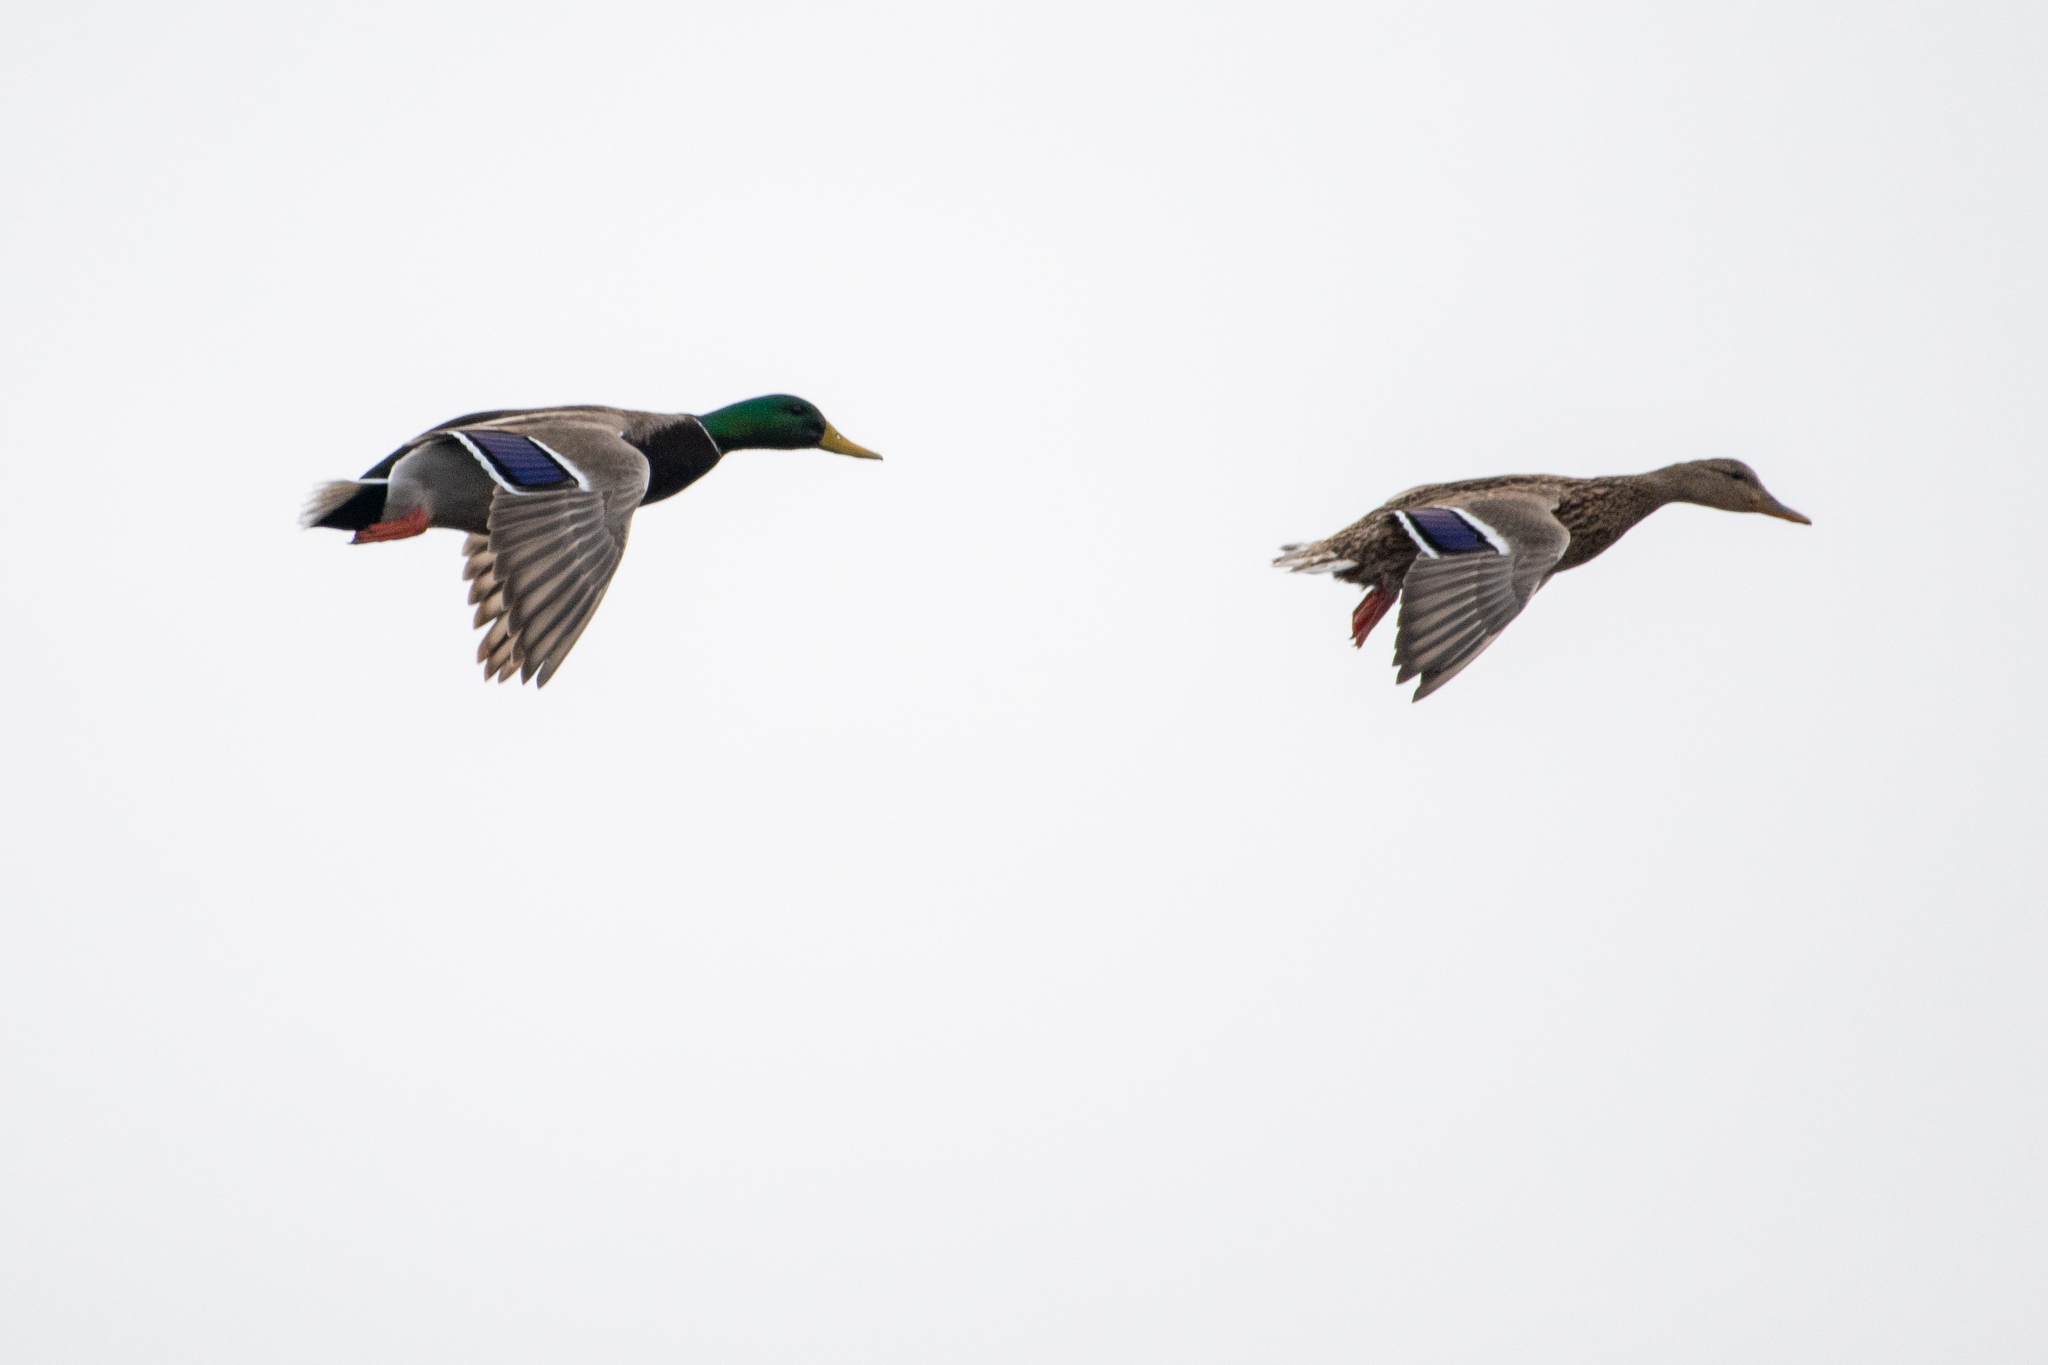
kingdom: Animalia
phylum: Chordata
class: Aves
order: Anseriformes
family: Anatidae
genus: Anas
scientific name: Anas platyrhynchos
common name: Mallard
